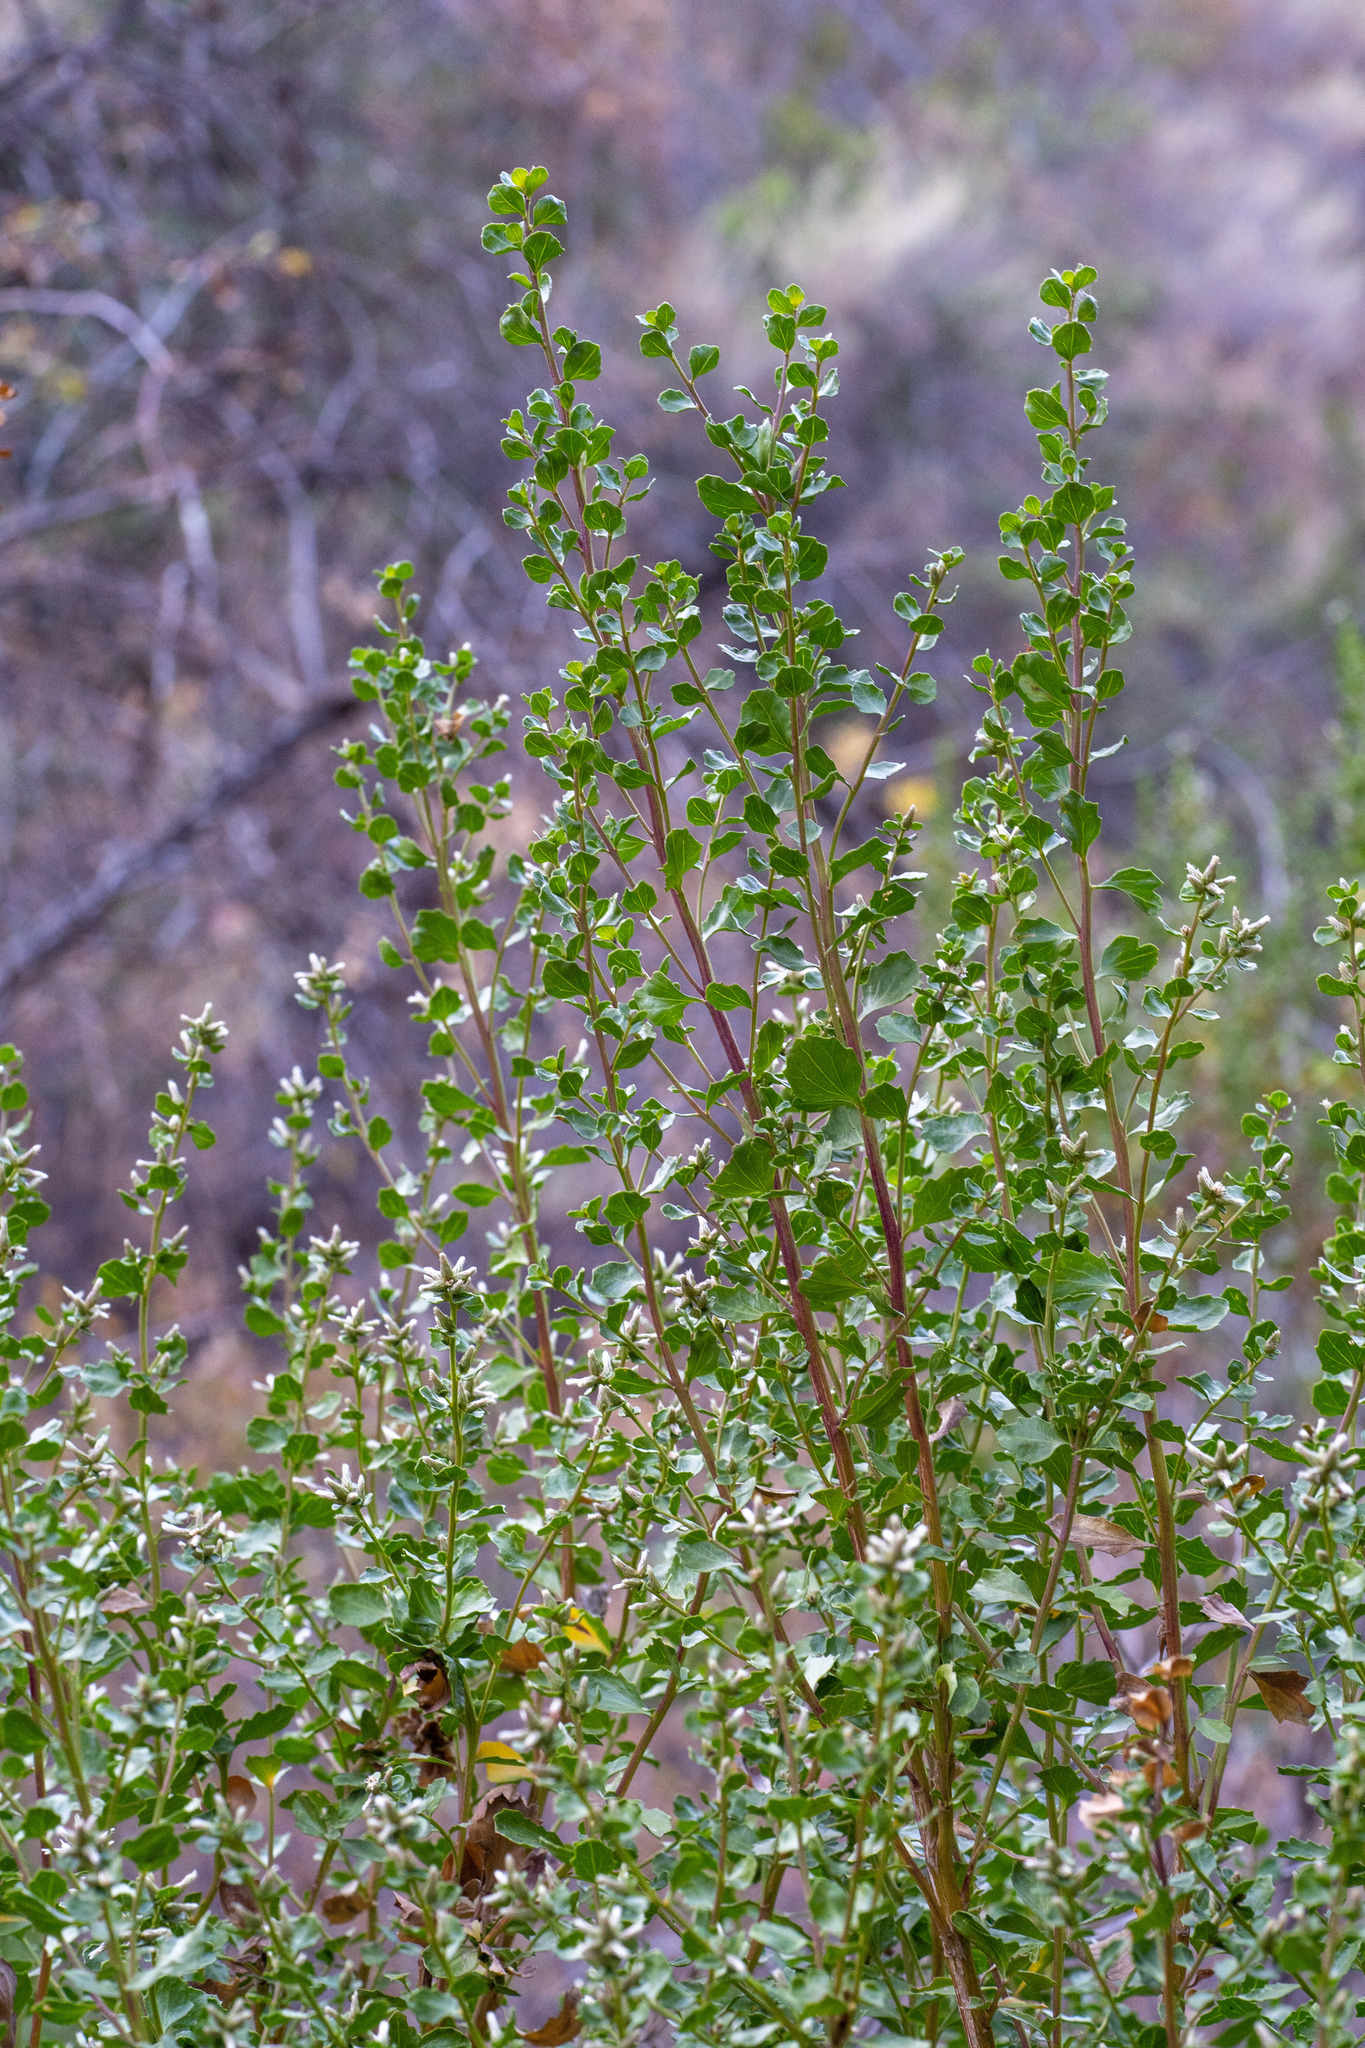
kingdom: Plantae
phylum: Tracheophyta
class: Magnoliopsida
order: Asterales
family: Asteraceae
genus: Baccharis
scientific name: Baccharis pilularis
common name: Coyotebrush
